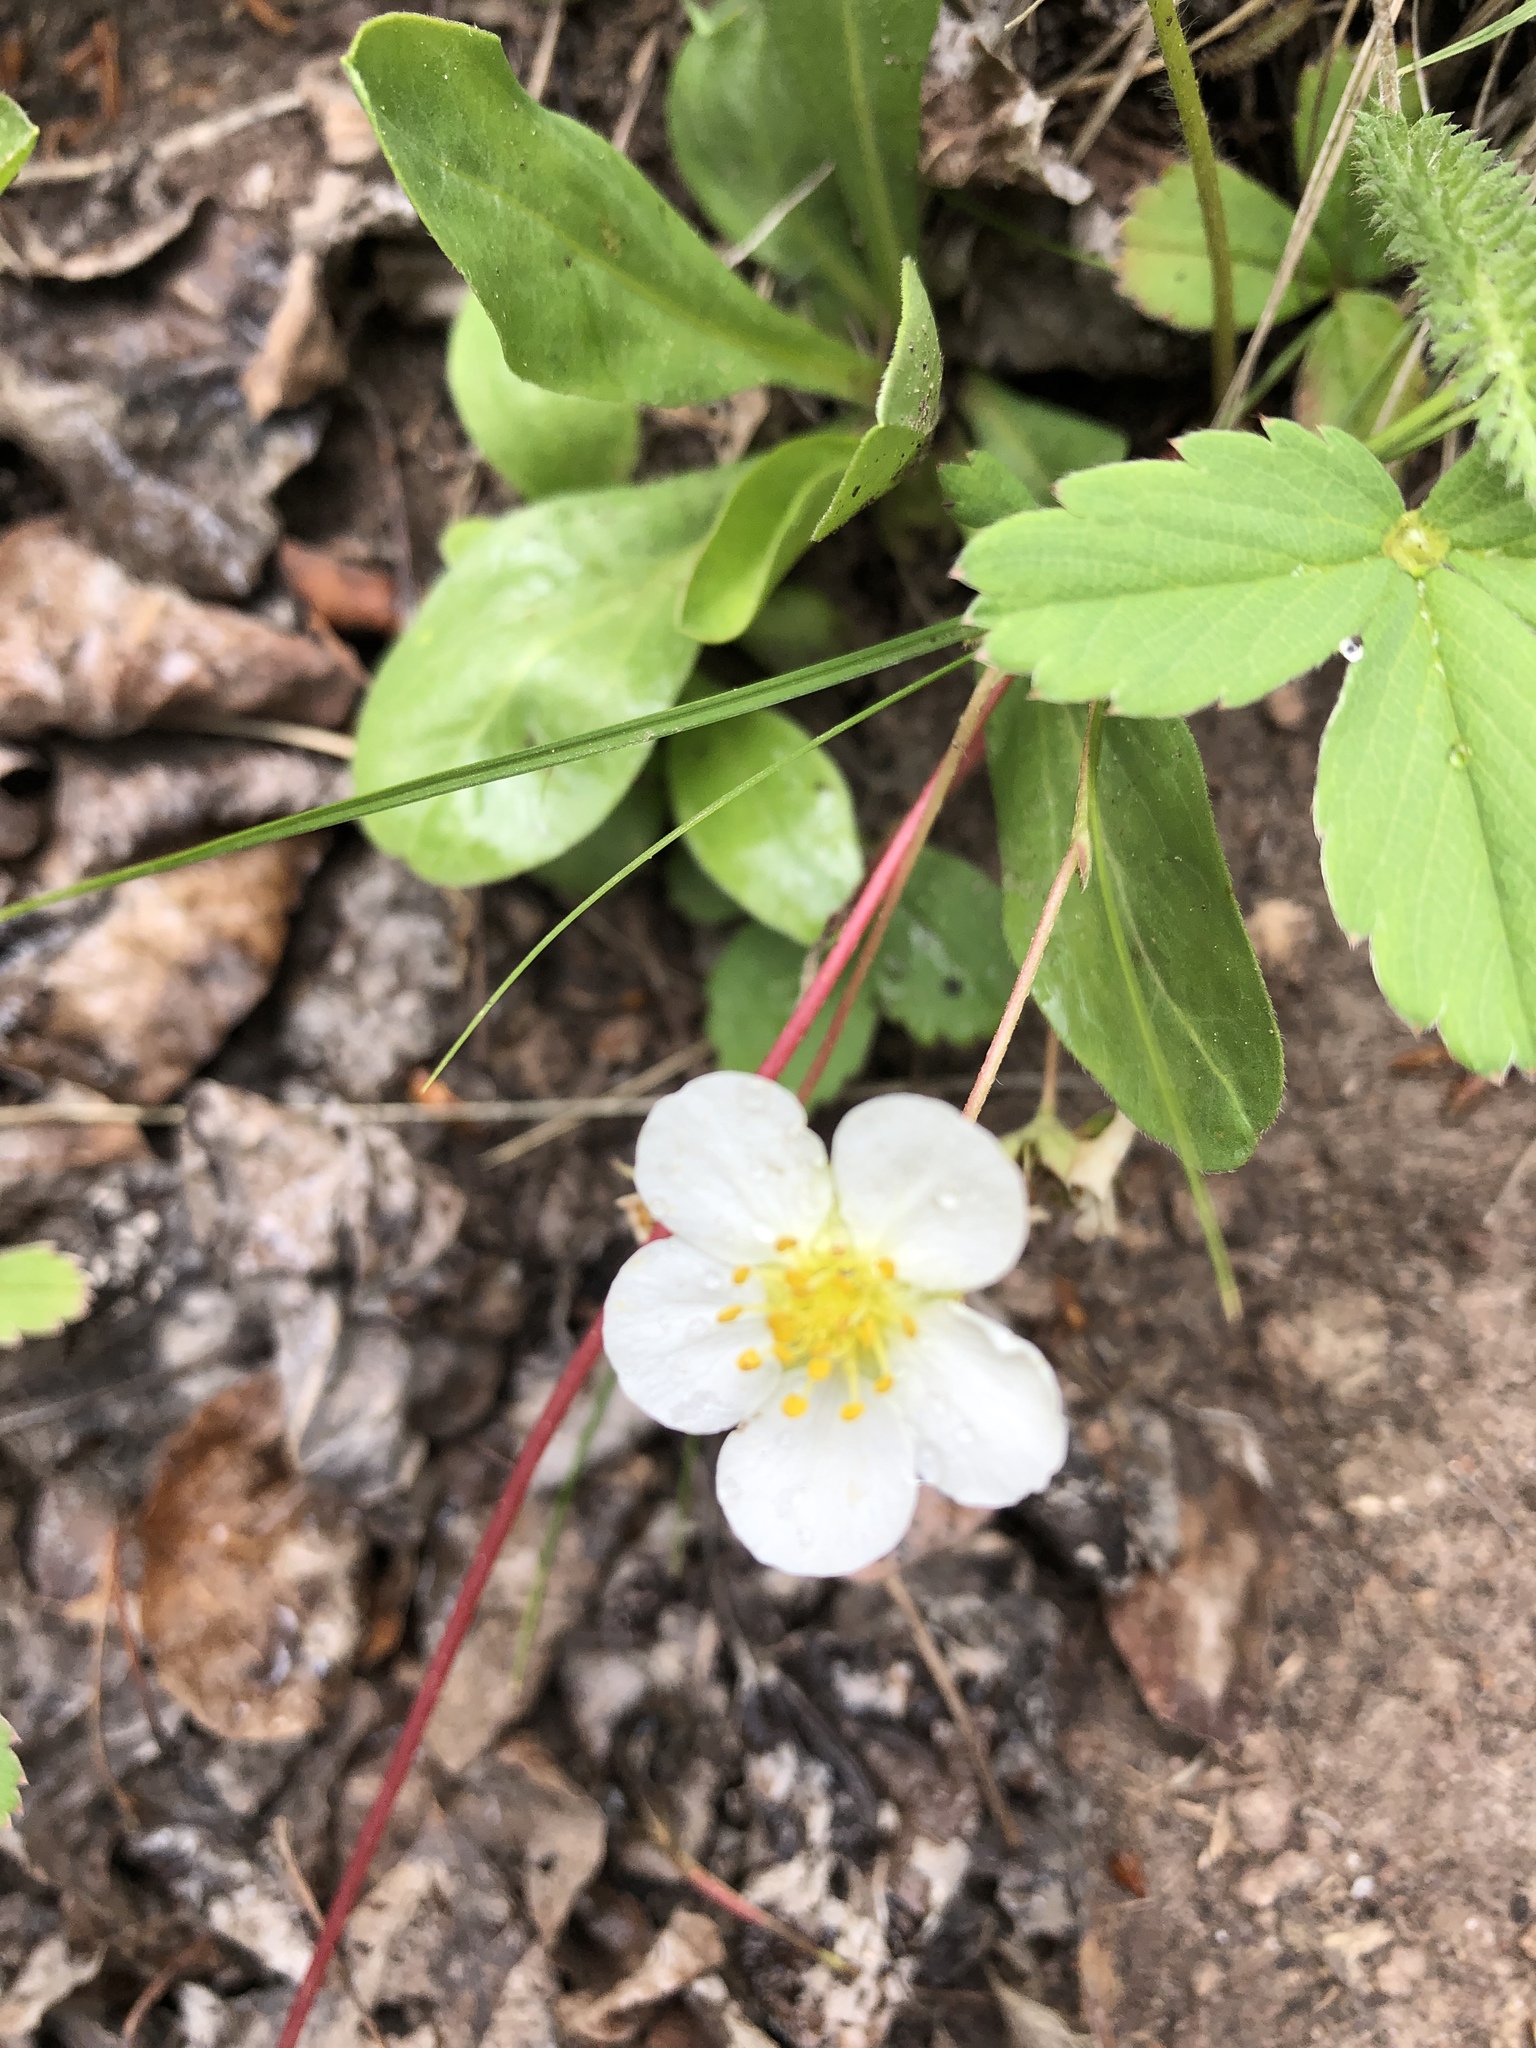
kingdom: Plantae
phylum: Tracheophyta
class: Magnoliopsida
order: Rosales
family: Rosaceae
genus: Fragaria
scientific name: Fragaria virginiana
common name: Thickleaved wild strawberry
